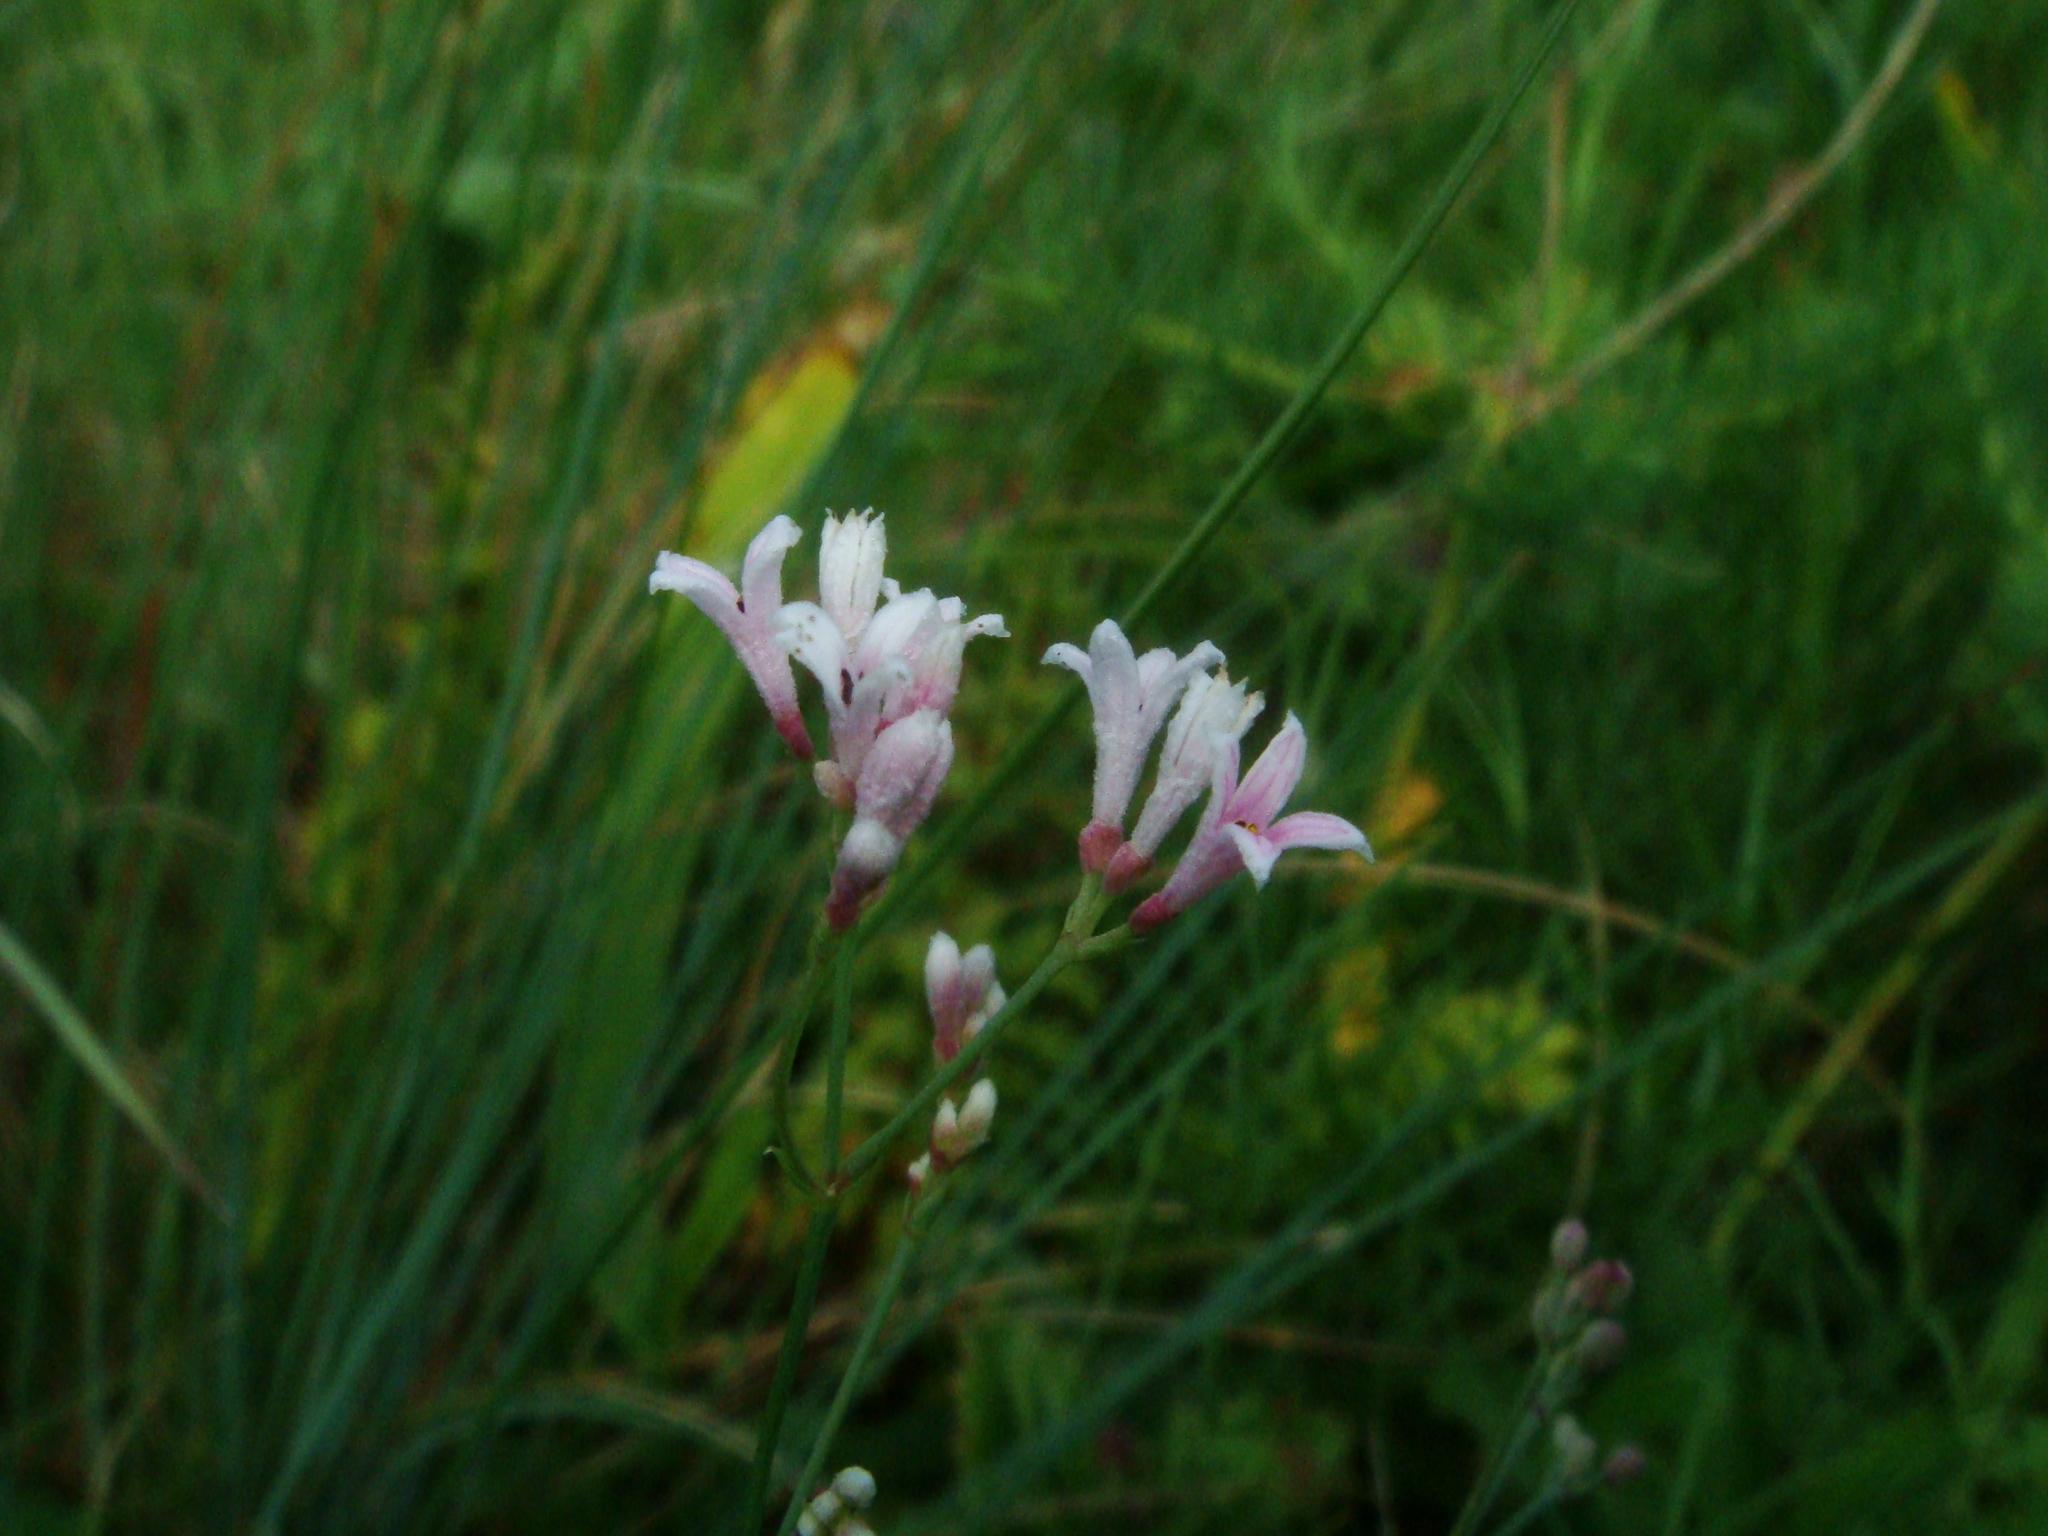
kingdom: Plantae
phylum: Tracheophyta
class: Magnoliopsida
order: Gentianales
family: Rubiaceae
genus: Cynanchica
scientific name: Cynanchica pyrenaica
